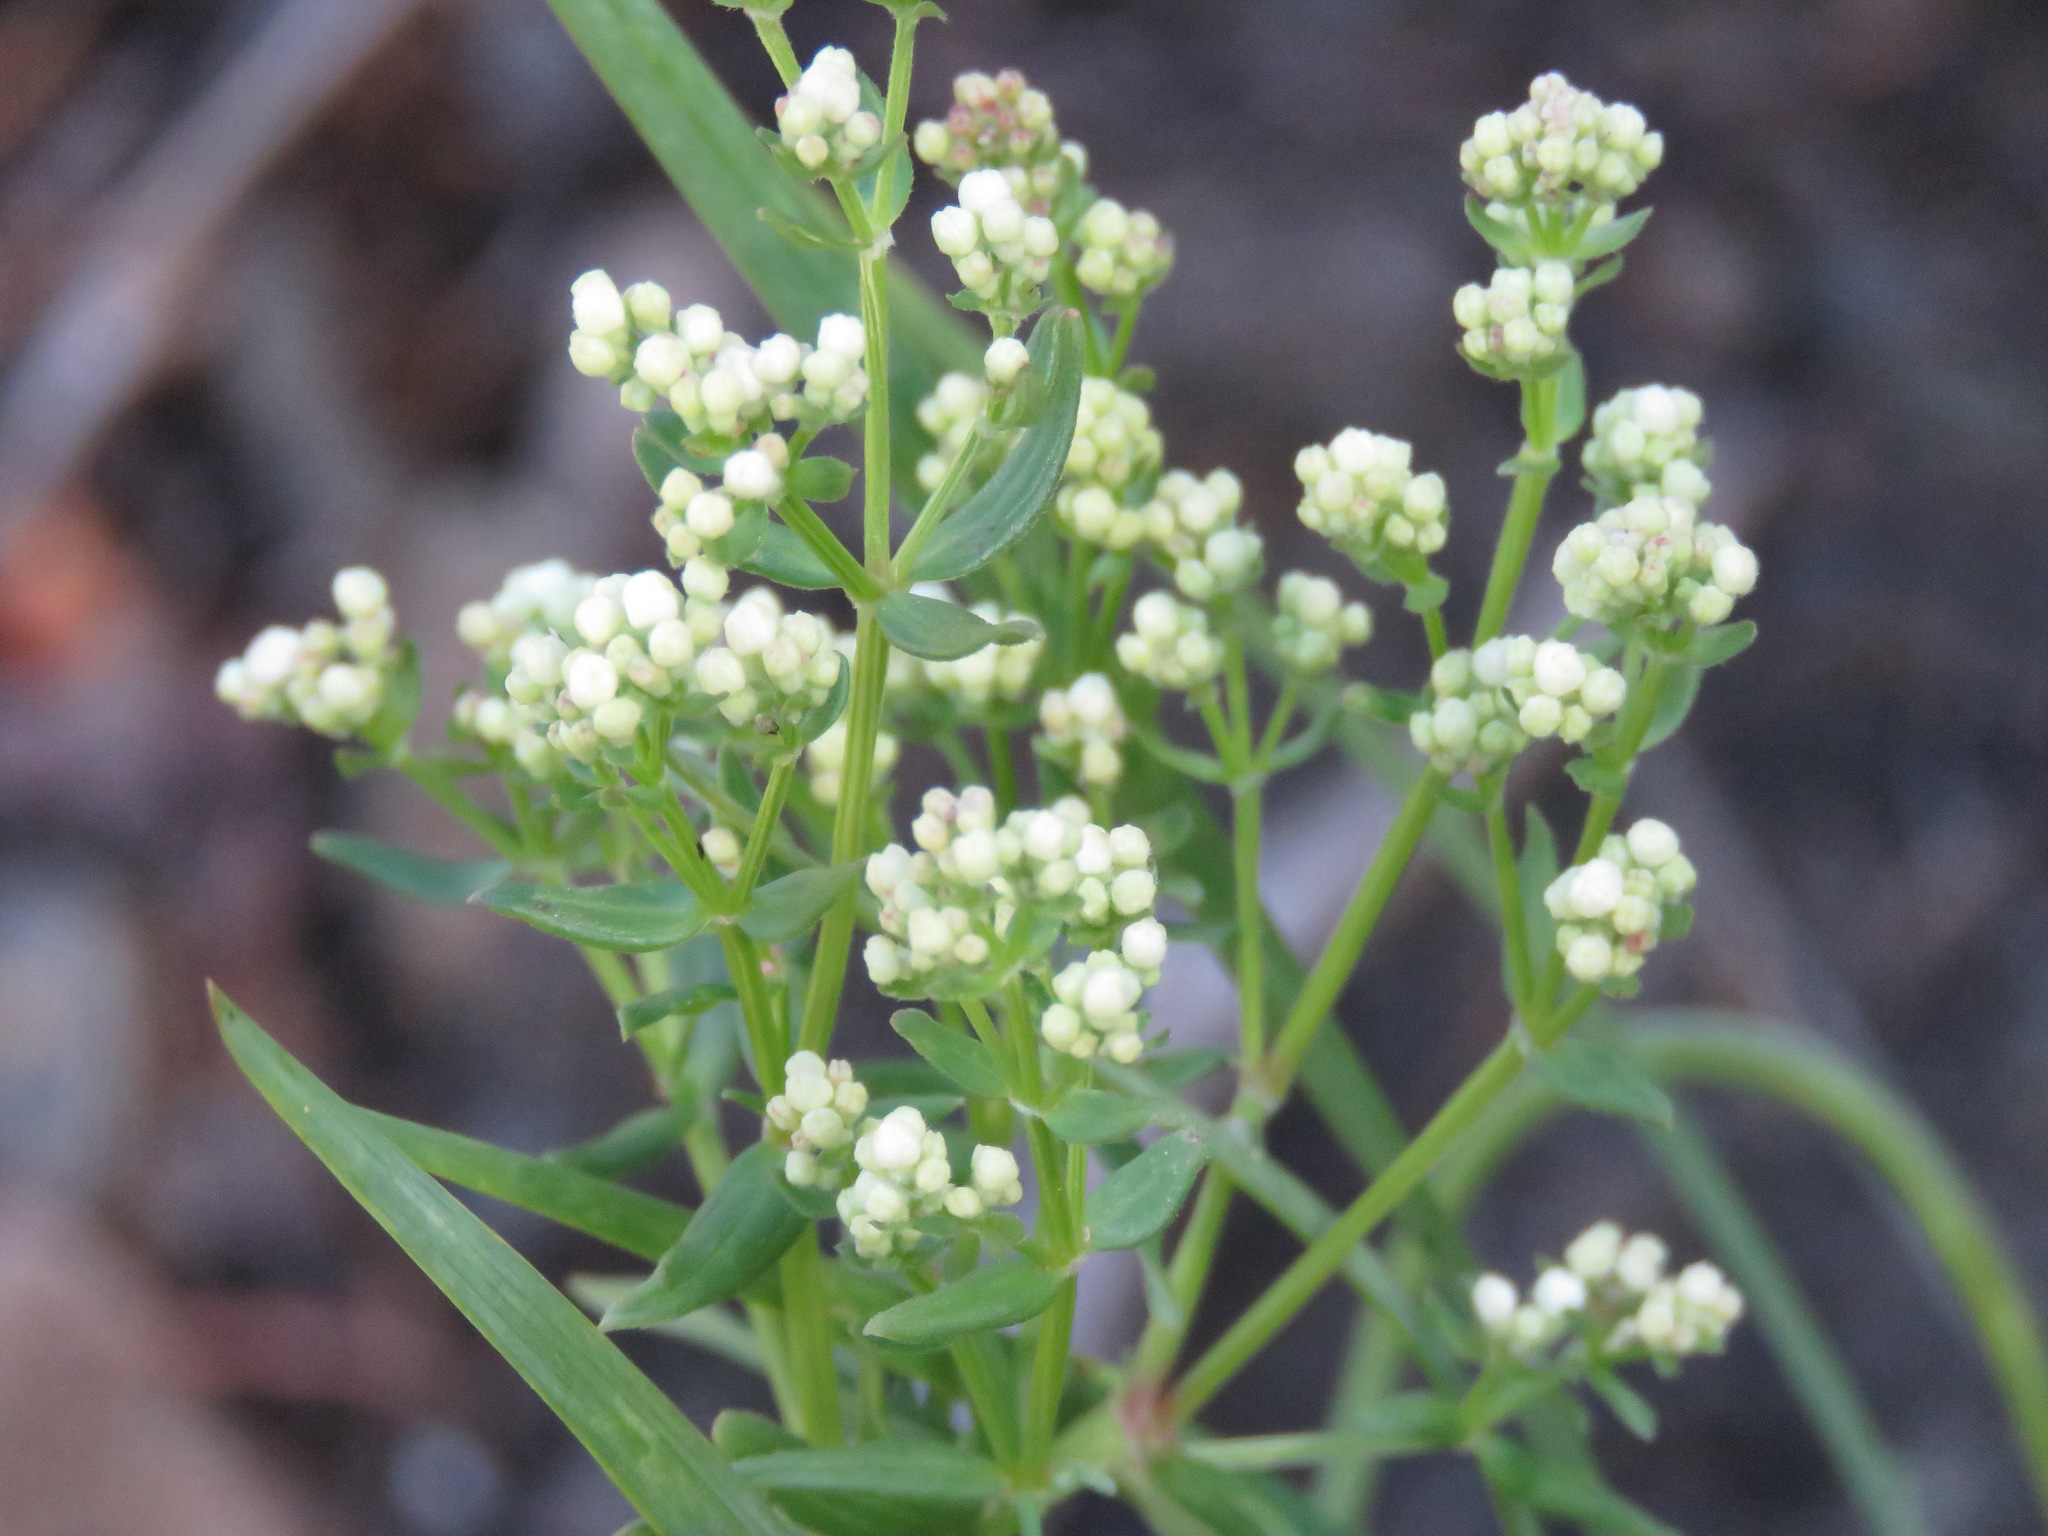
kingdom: Plantae
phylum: Tracheophyta
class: Magnoliopsida
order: Gentianales
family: Rubiaceae
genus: Galium
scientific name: Galium boreale
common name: Northern bedstraw
